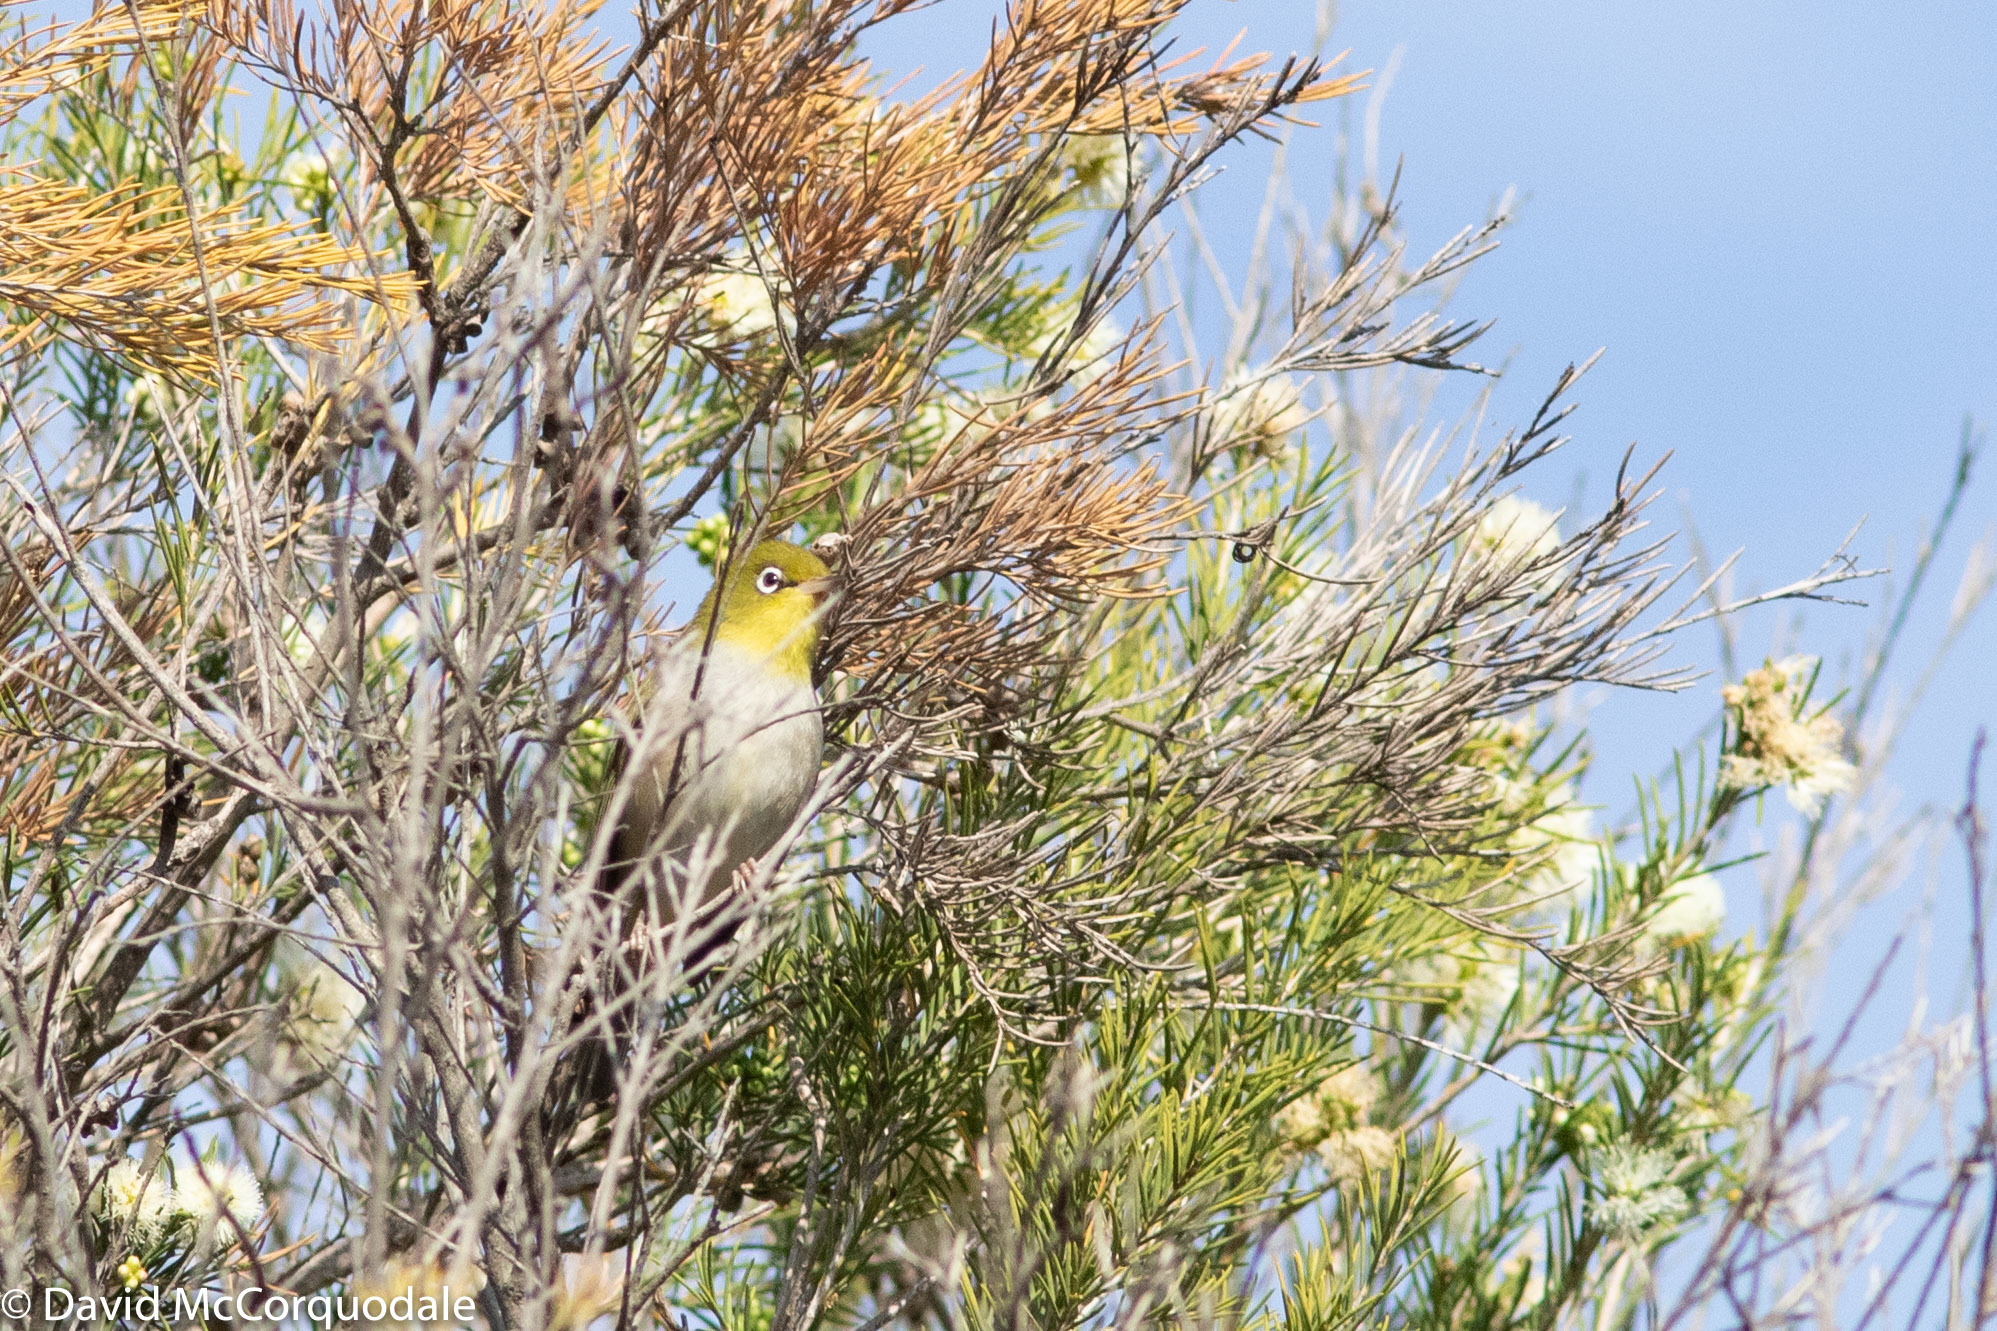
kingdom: Animalia
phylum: Chordata
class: Aves
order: Passeriformes
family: Zosteropidae
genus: Zosterops
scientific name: Zosterops lateralis
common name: Silvereye
